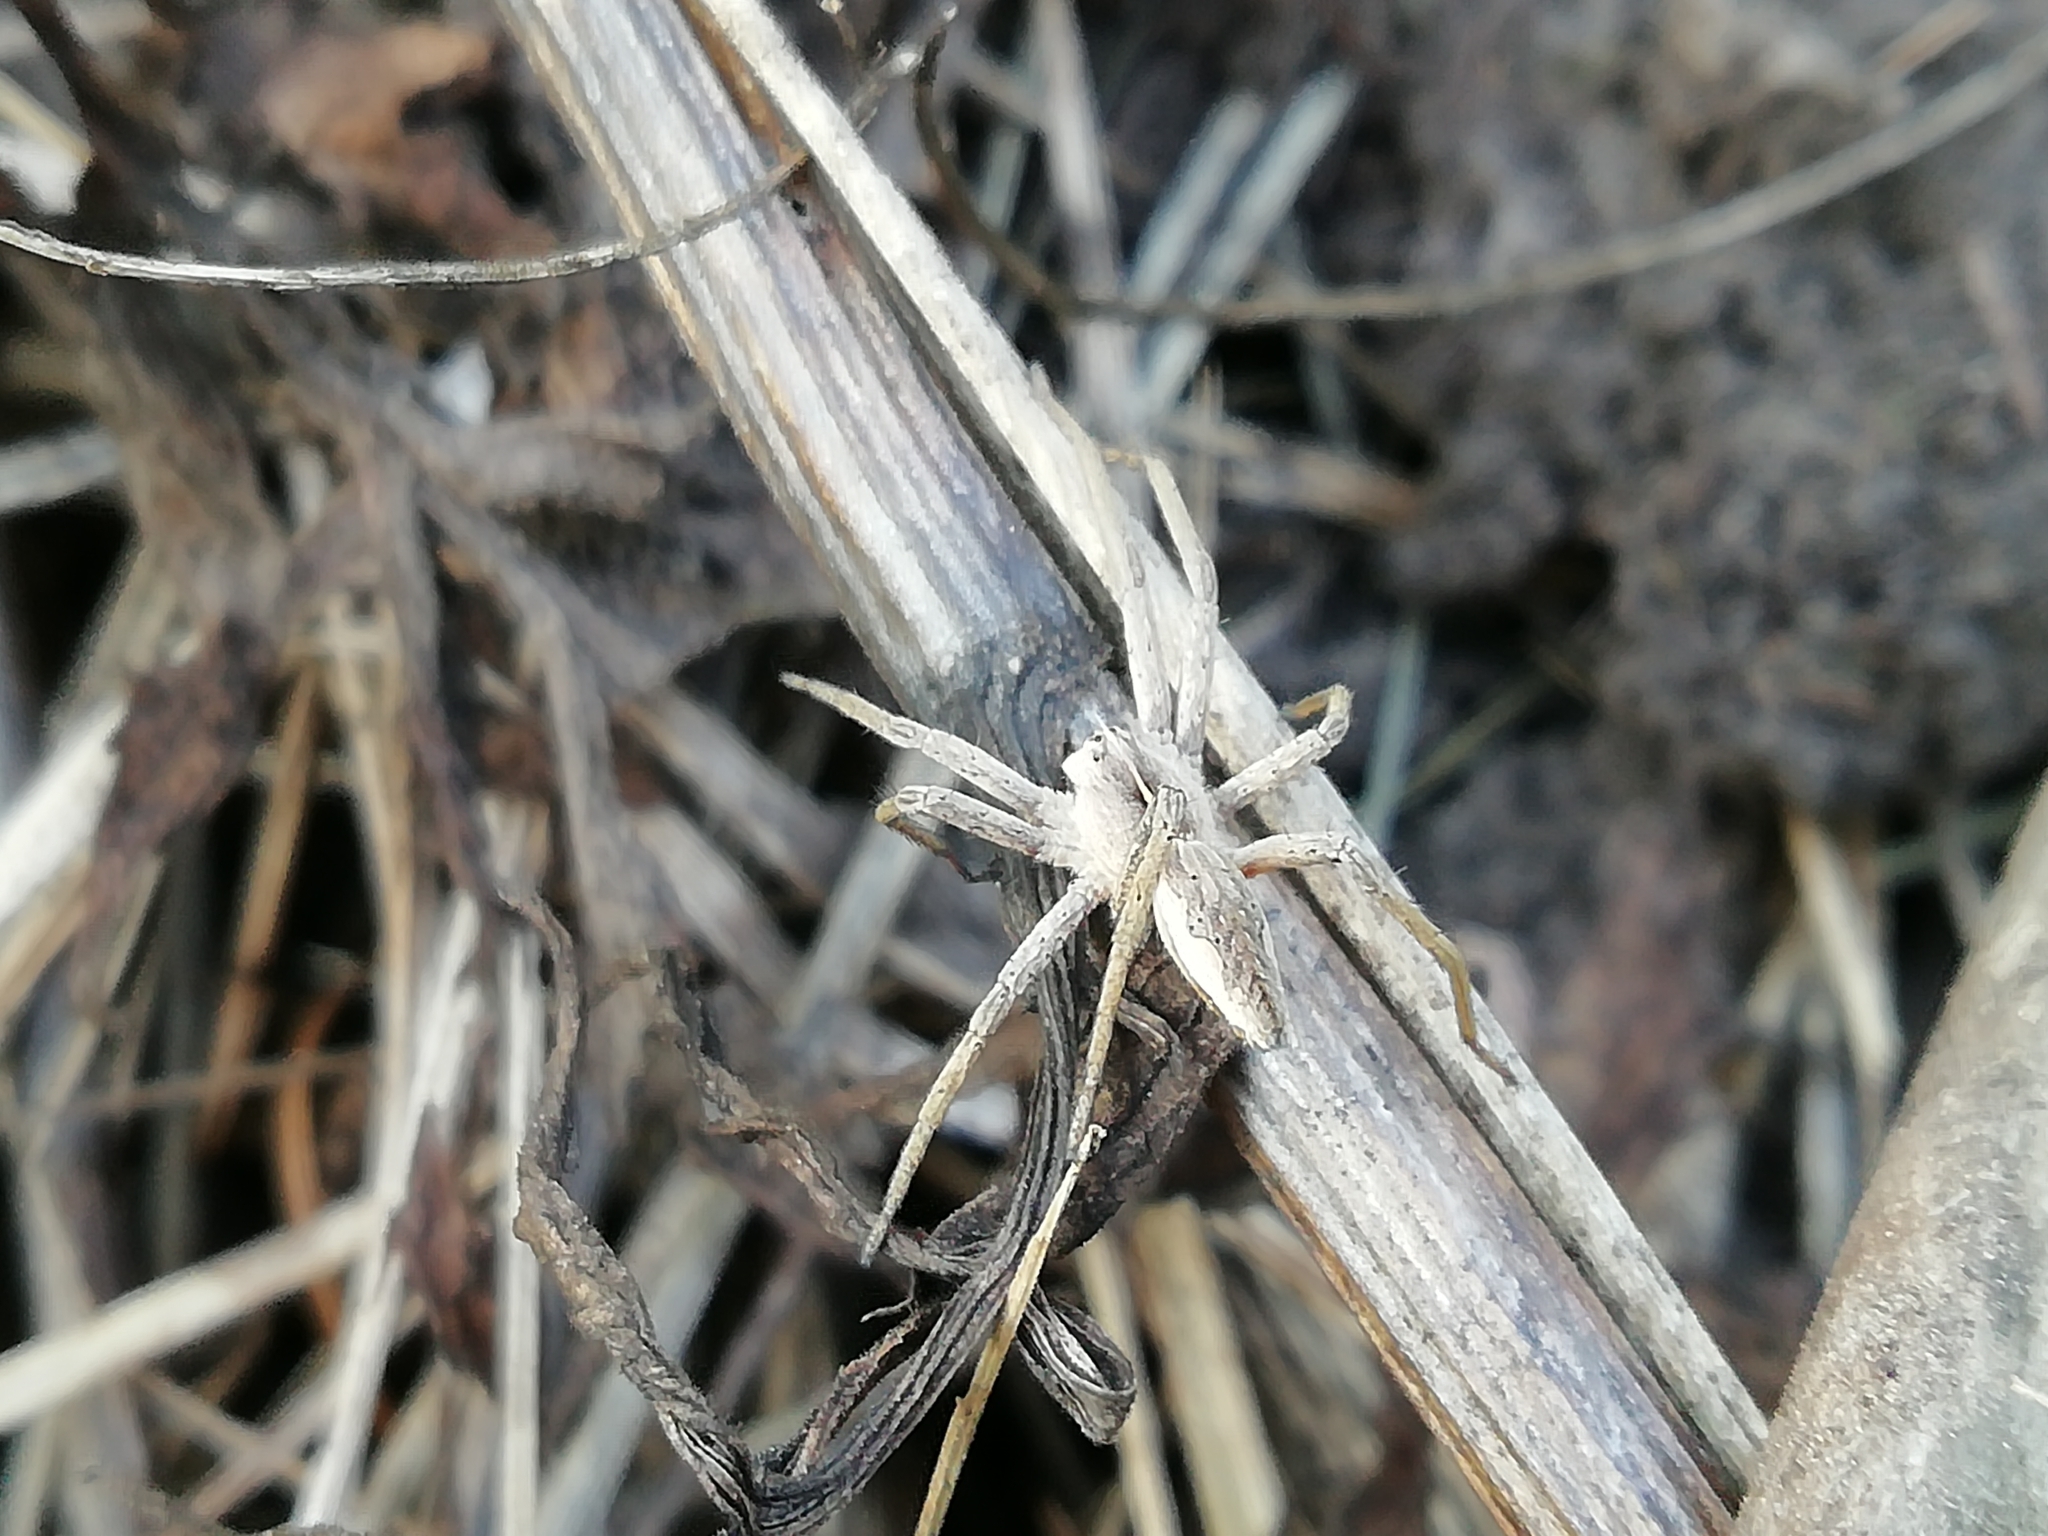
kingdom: Animalia
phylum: Arthropoda
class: Arachnida
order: Araneae
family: Pisauridae
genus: Pisaura
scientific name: Pisaura mirabilis
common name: Tent spider
